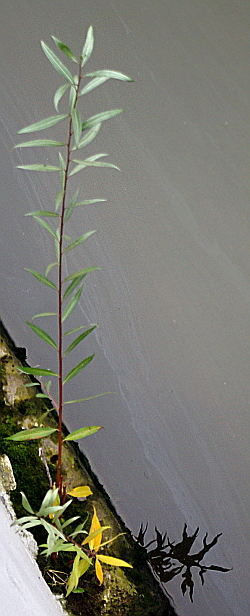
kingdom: Plantae
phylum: Tracheophyta
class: Magnoliopsida
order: Malpighiales
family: Salicaceae
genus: Salix
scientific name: Salix alba
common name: White willow
